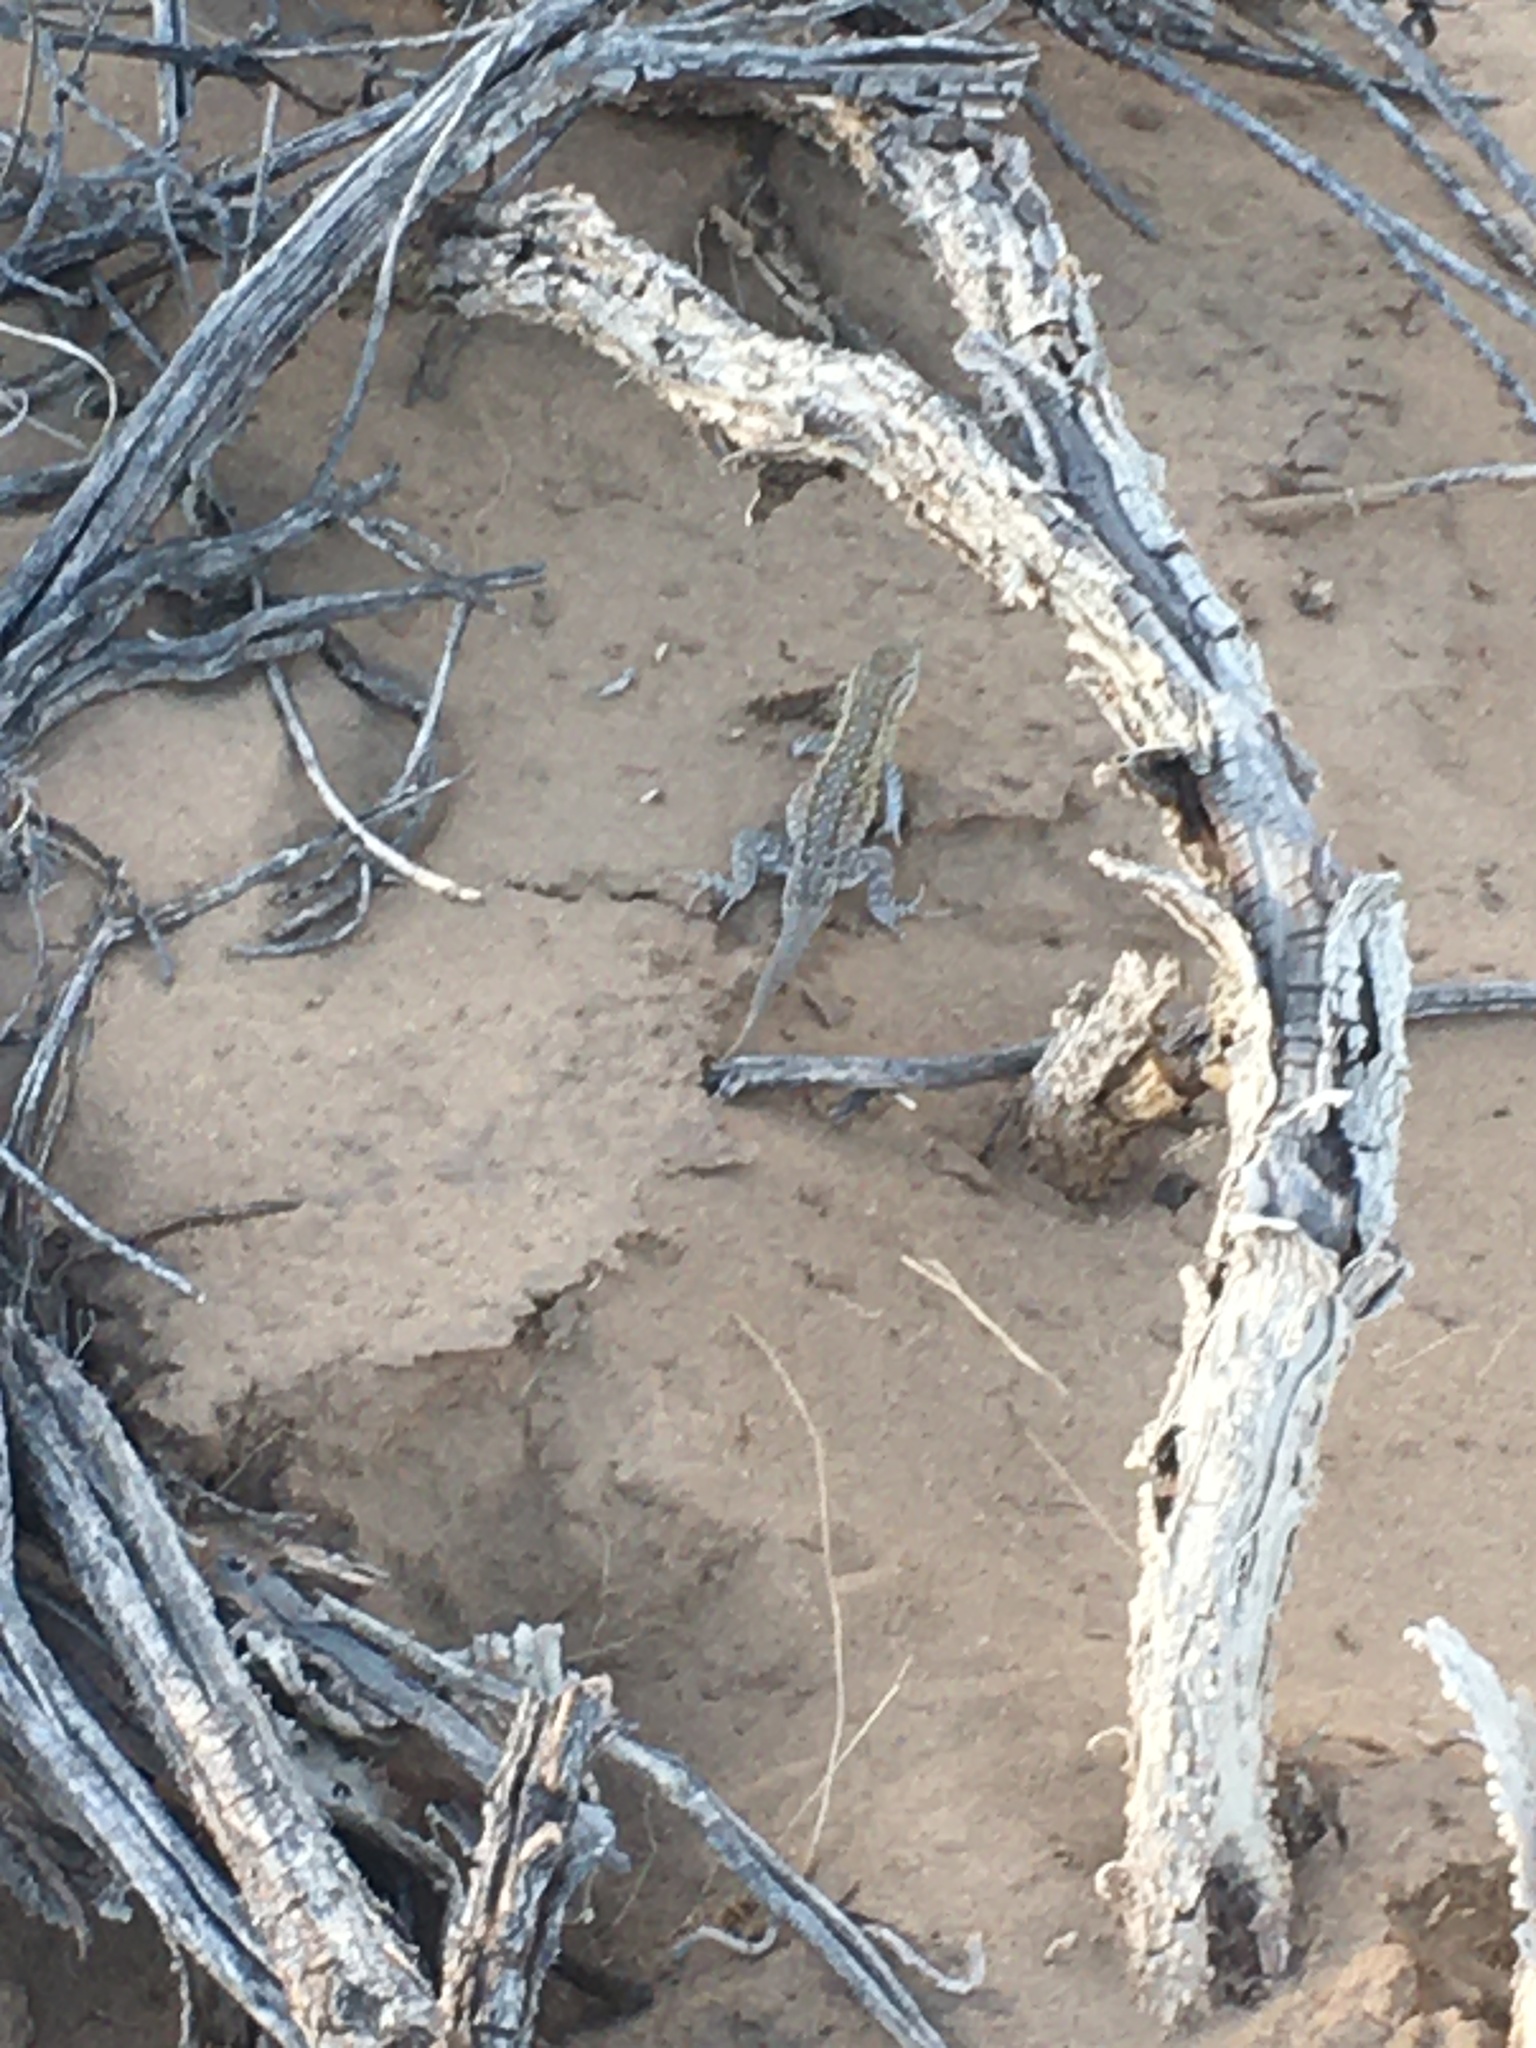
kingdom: Animalia
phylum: Chordata
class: Squamata
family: Phrynosomatidae
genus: Uta
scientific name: Uta stansburiana
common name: Side-blotched lizard
